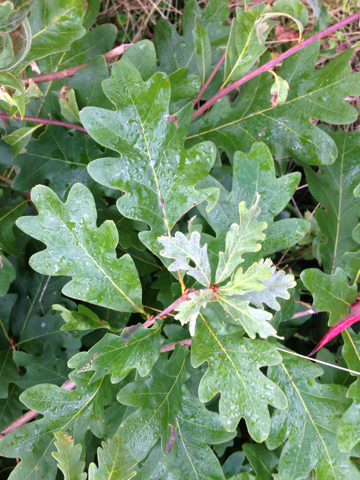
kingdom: Plantae
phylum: Tracheophyta
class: Magnoliopsida
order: Fagales
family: Fagaceae
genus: Quercus
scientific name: Quercus alba
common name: White oak
